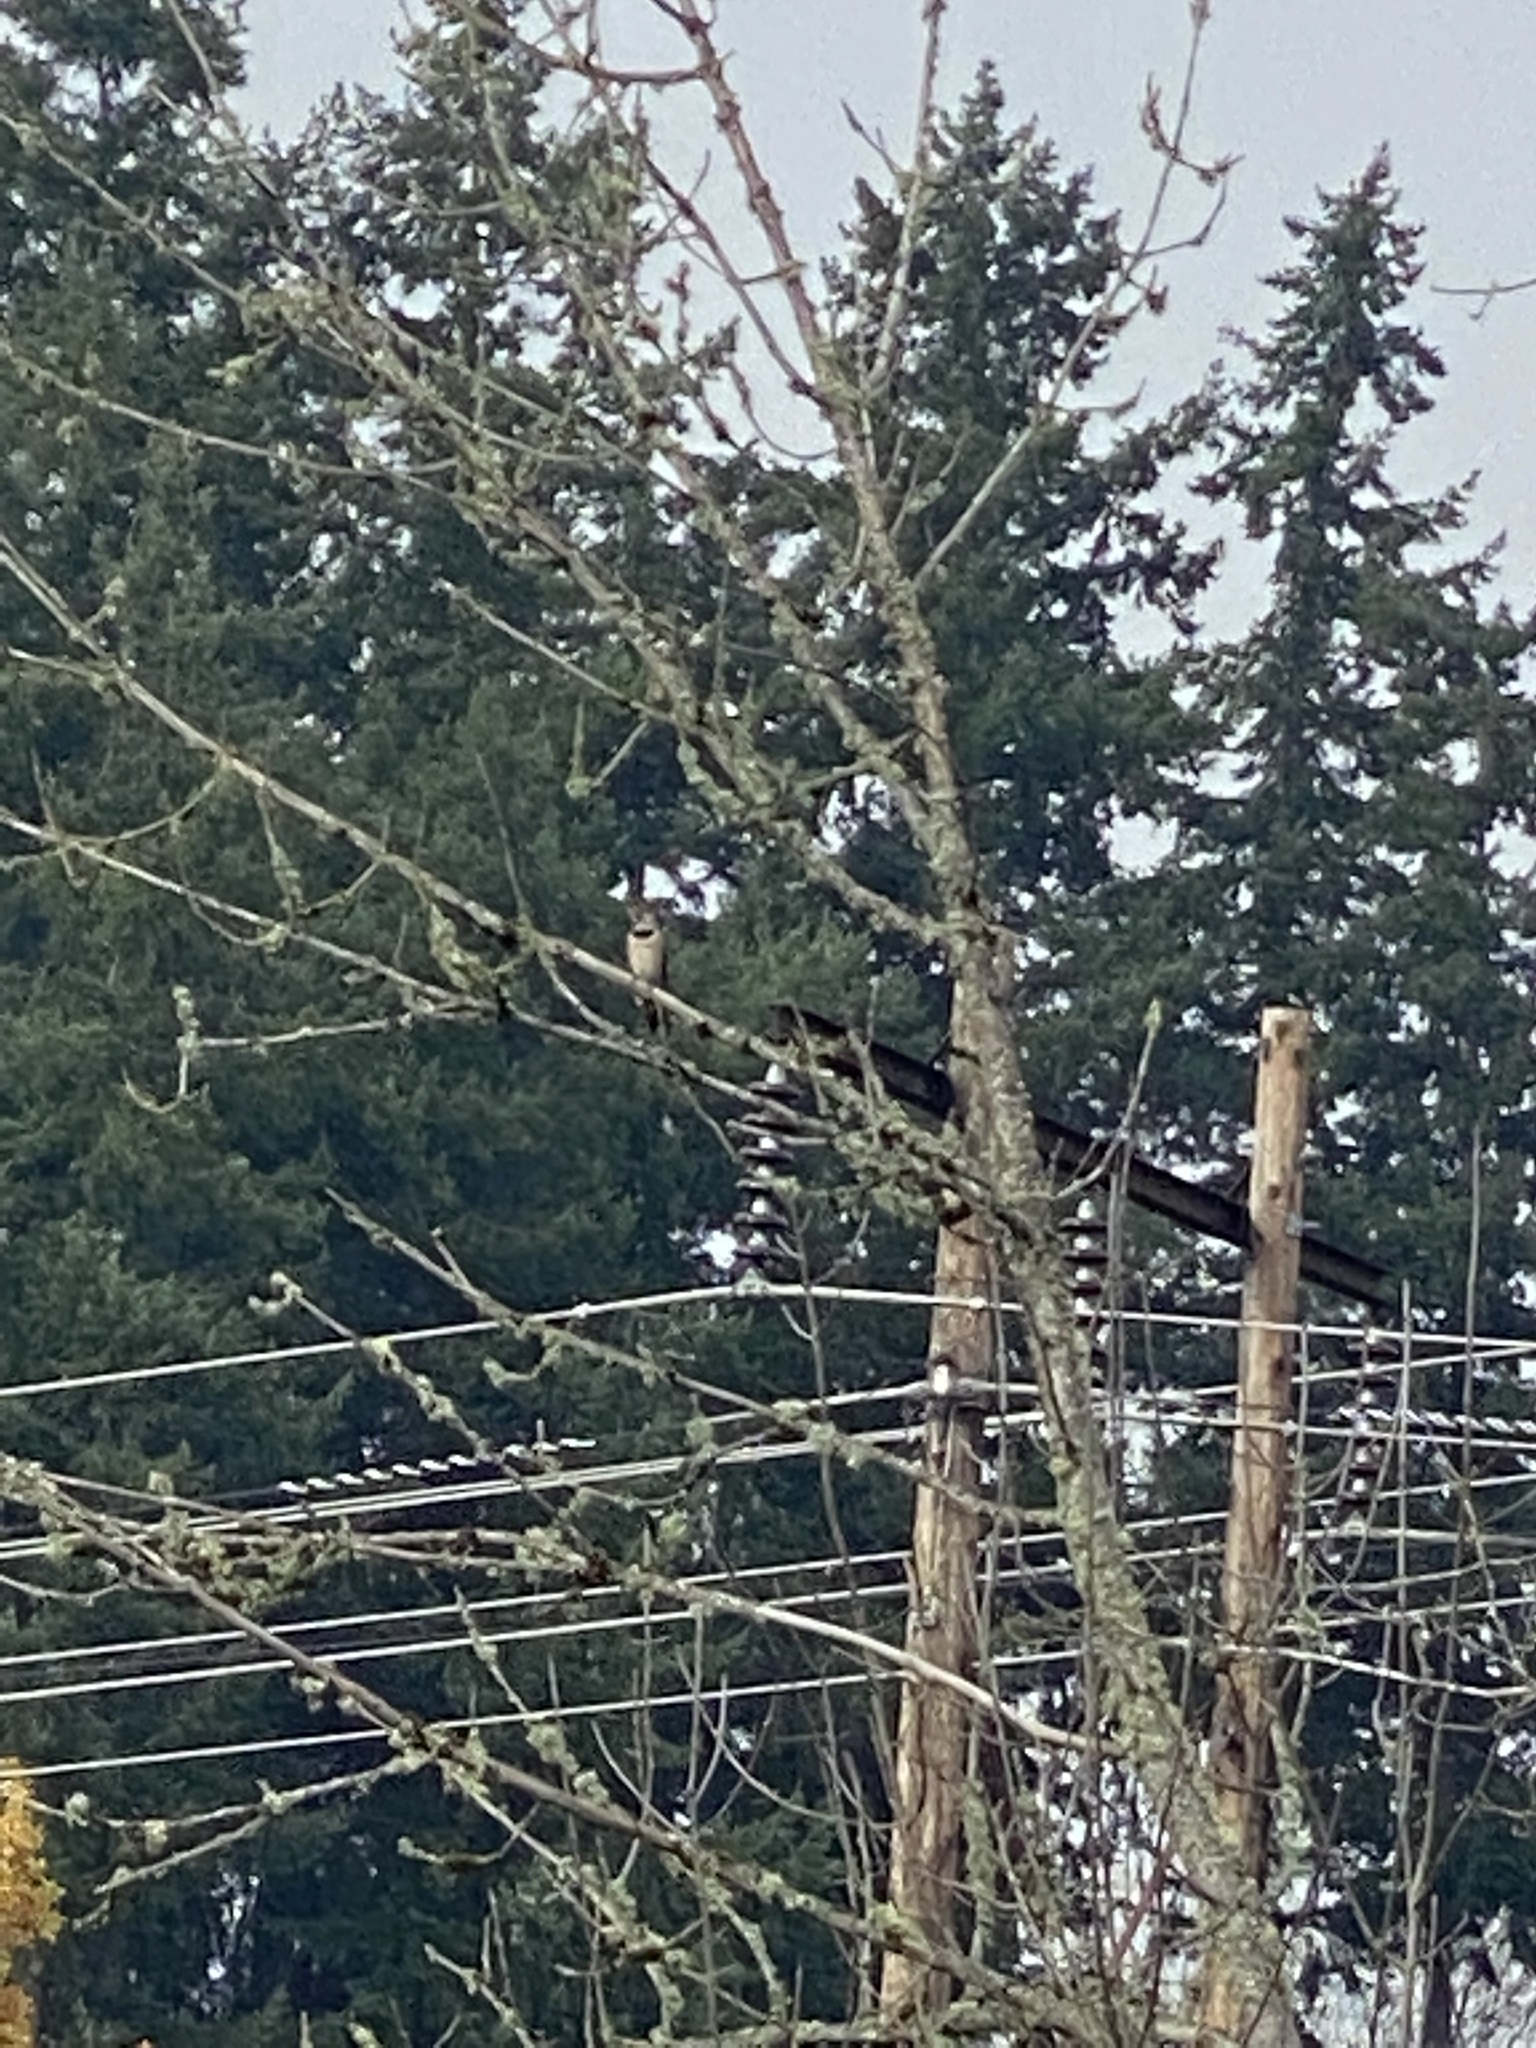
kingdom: Animalia
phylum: Chordata
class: Aves
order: Piciformes
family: Picidae
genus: Colaptes
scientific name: Colaptes auratus
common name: Northern flicker
